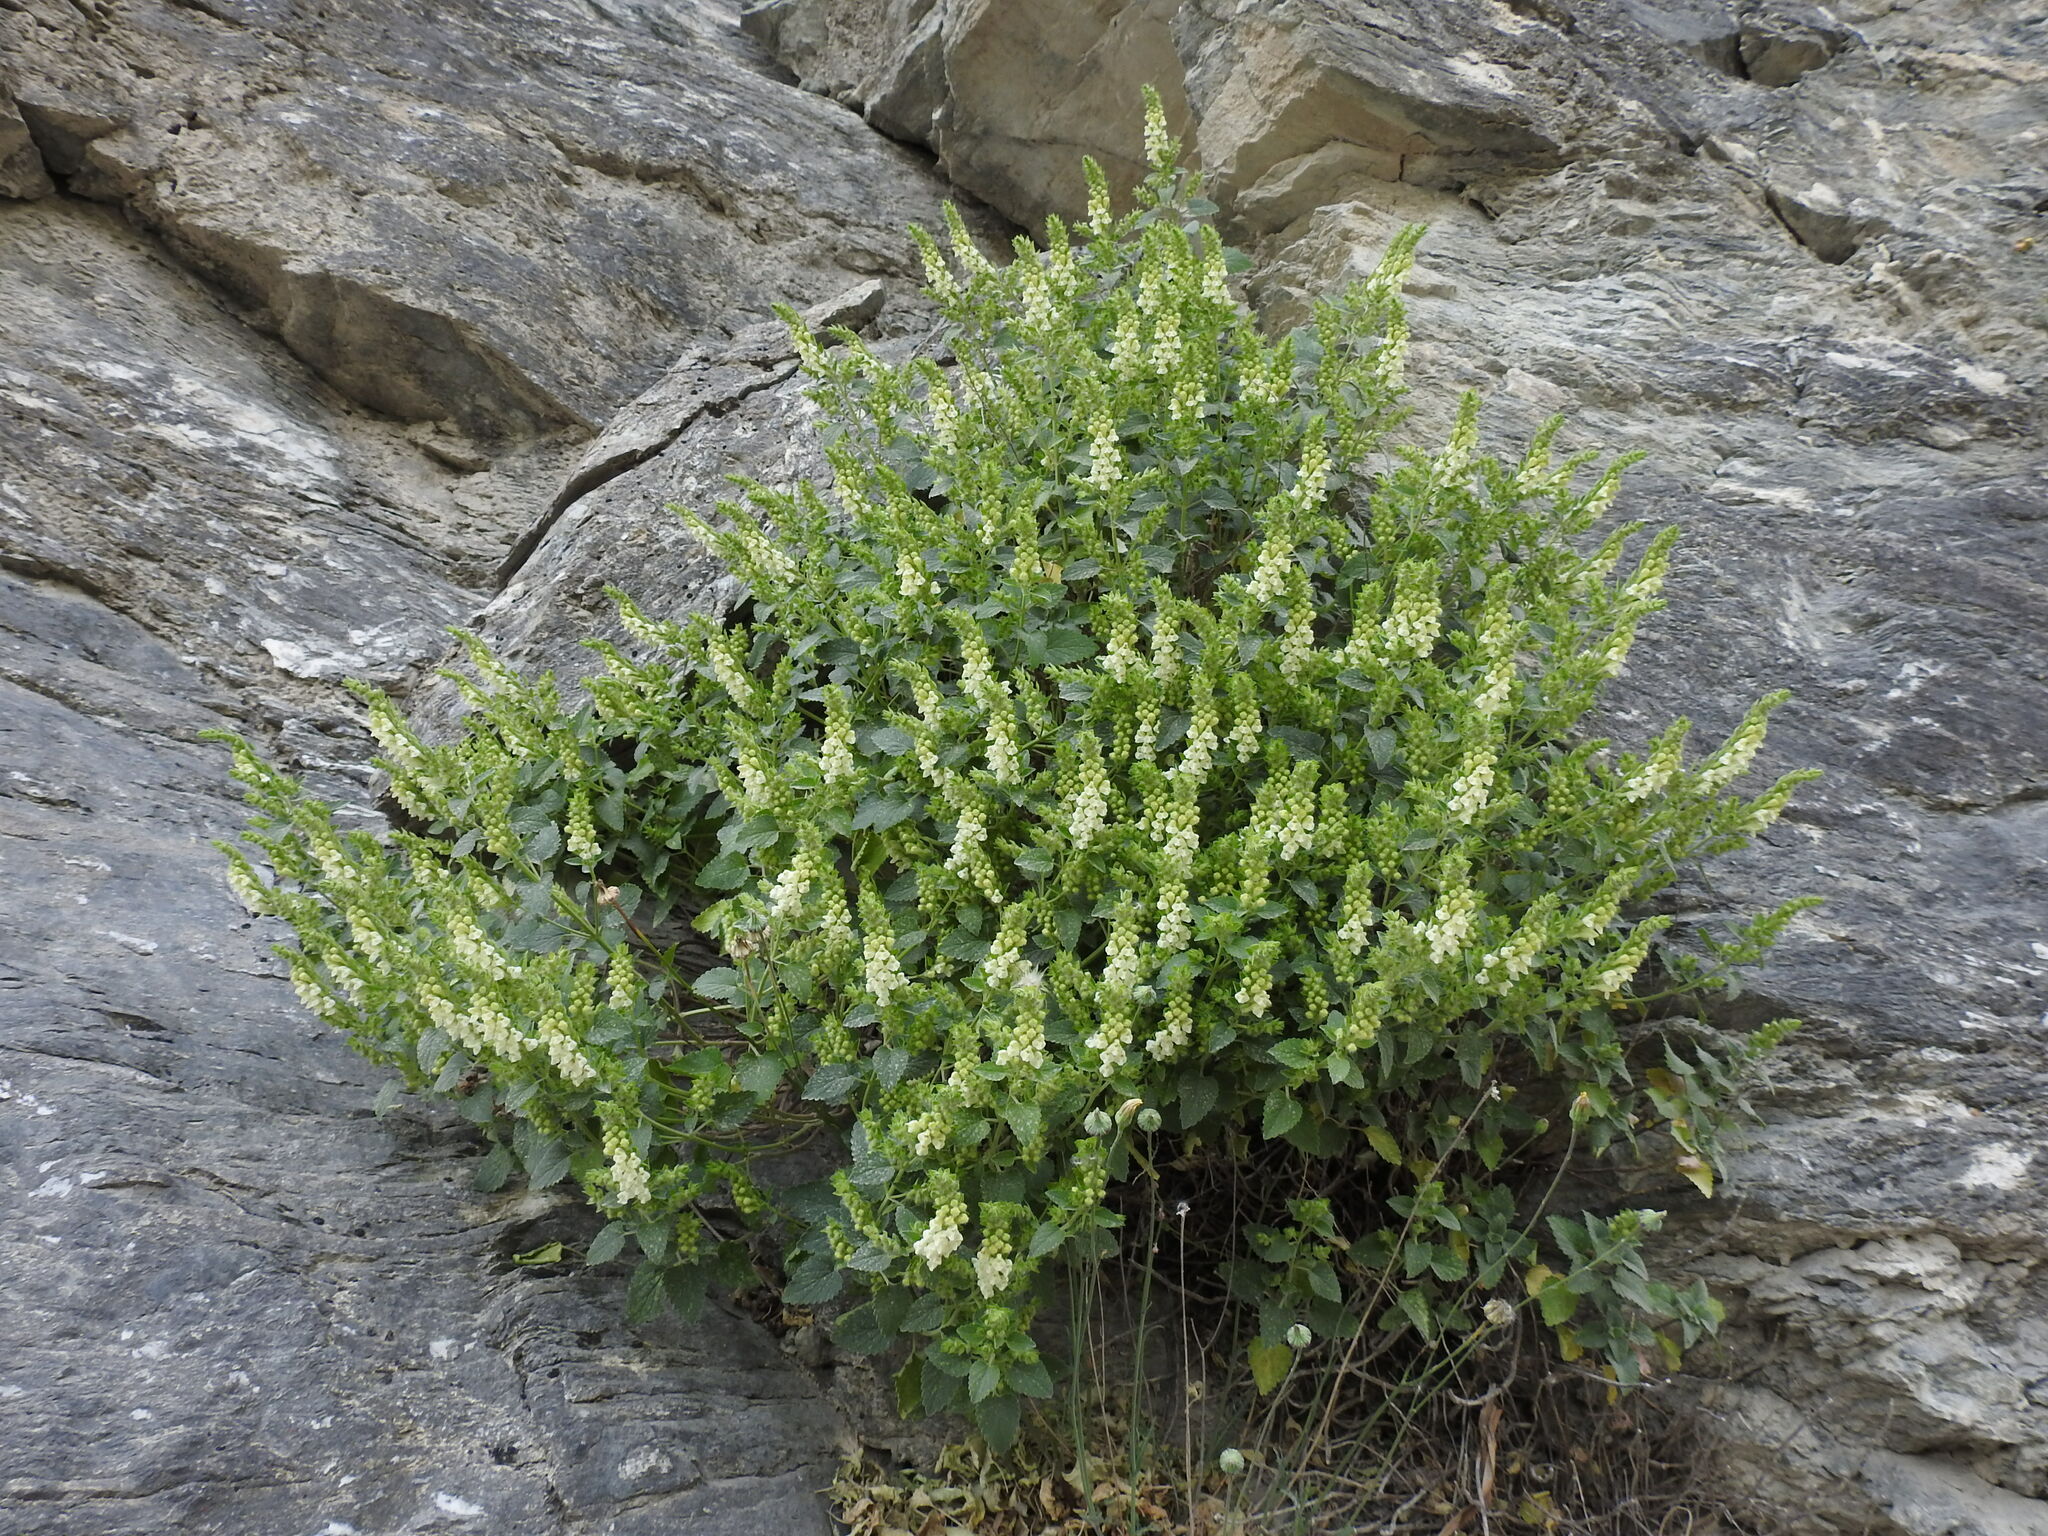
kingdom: Plantae
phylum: Tracheophyta
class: Magnoliopsida
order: Lamiales
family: Lamiaceae
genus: Scutellaria
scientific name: Scutellaria sieberi
